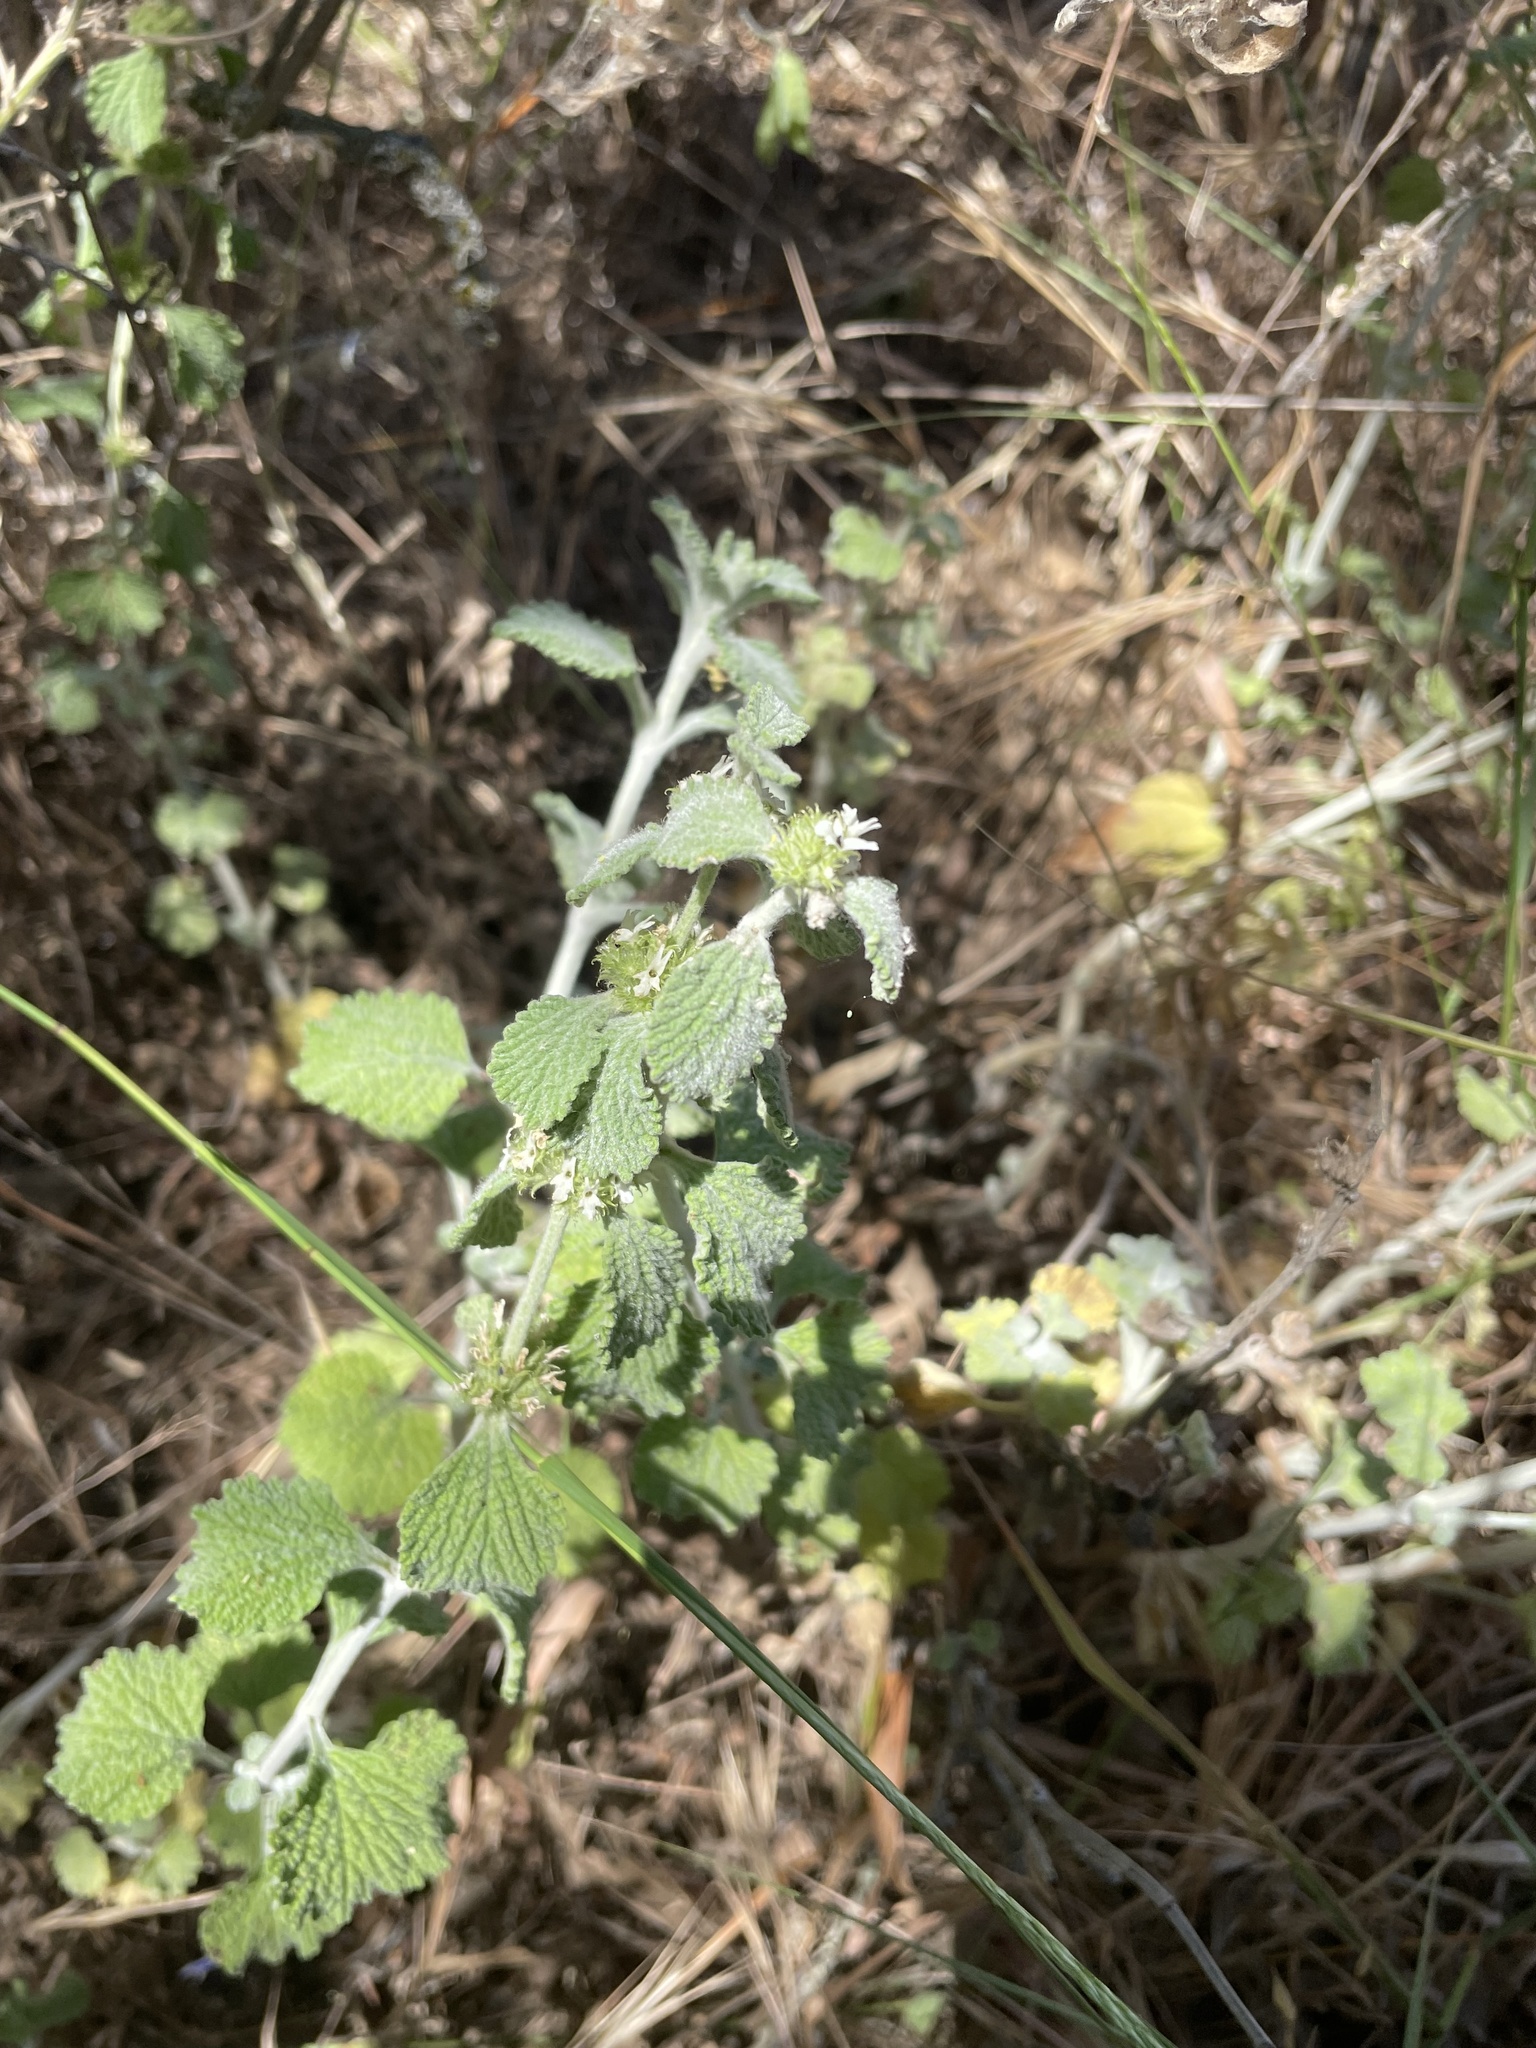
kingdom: Plantae
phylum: Tracheophyta
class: Magnoliopsida
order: Lamiales
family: Lamiaceae
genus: Marrubium
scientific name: Marrubium vulgare
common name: Horehound
